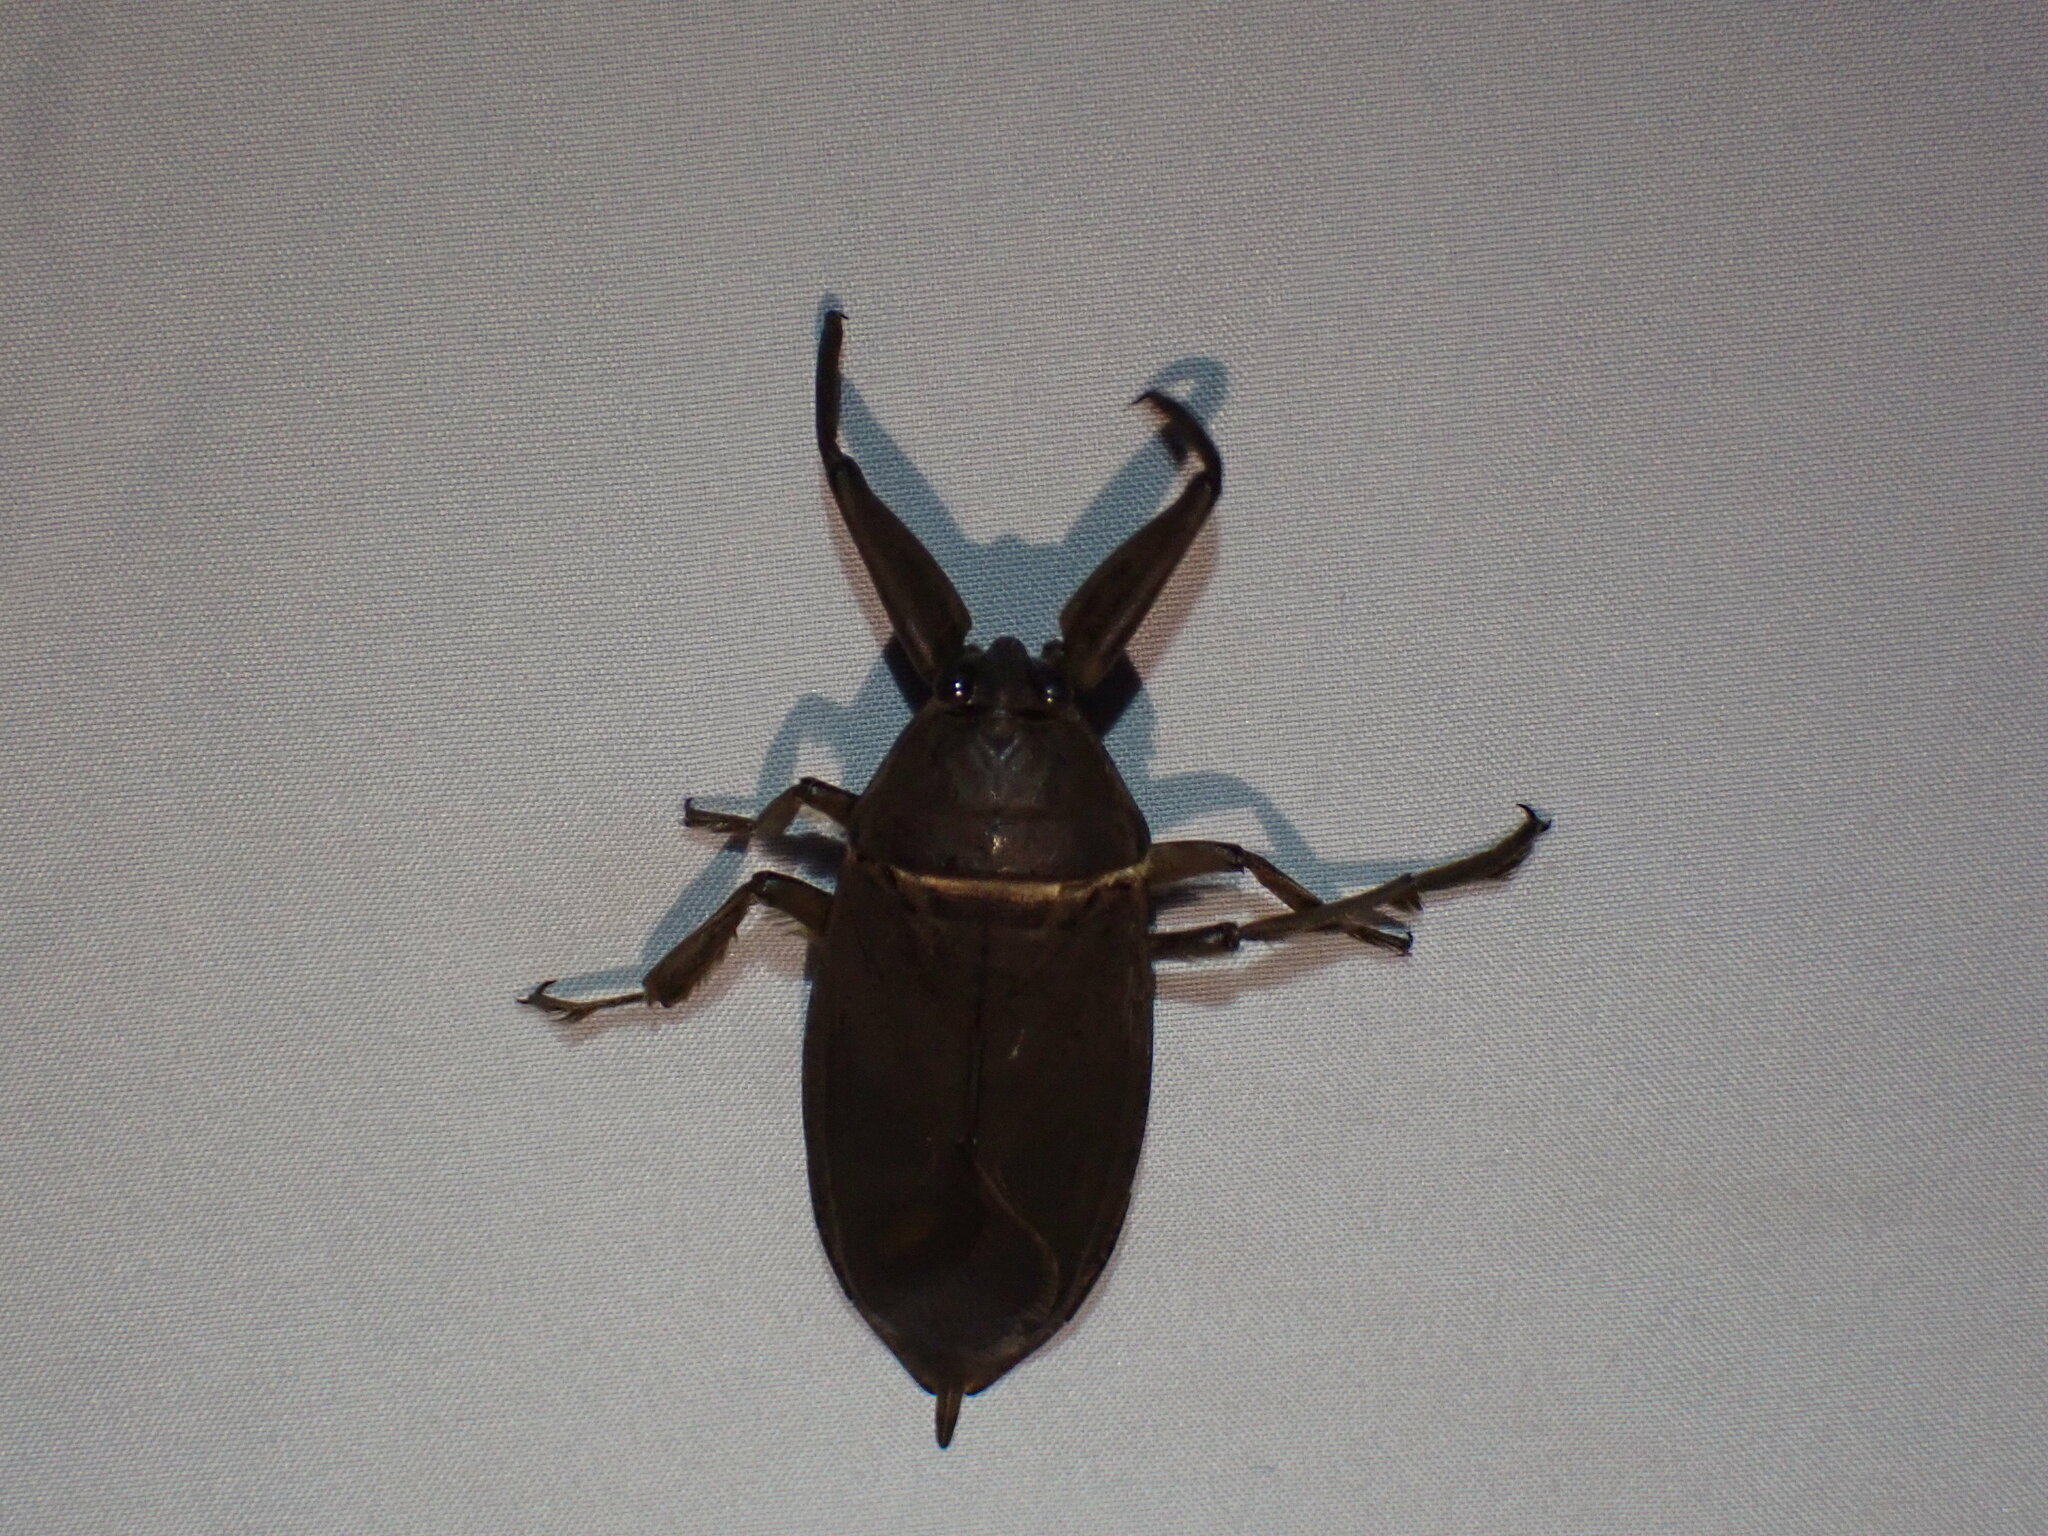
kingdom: Animalia
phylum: Arthropoda
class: Insecta
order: Hemiptera
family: Belostomatidae
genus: Lethocerus
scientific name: Lethocerus americanus
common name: Giant water bug
